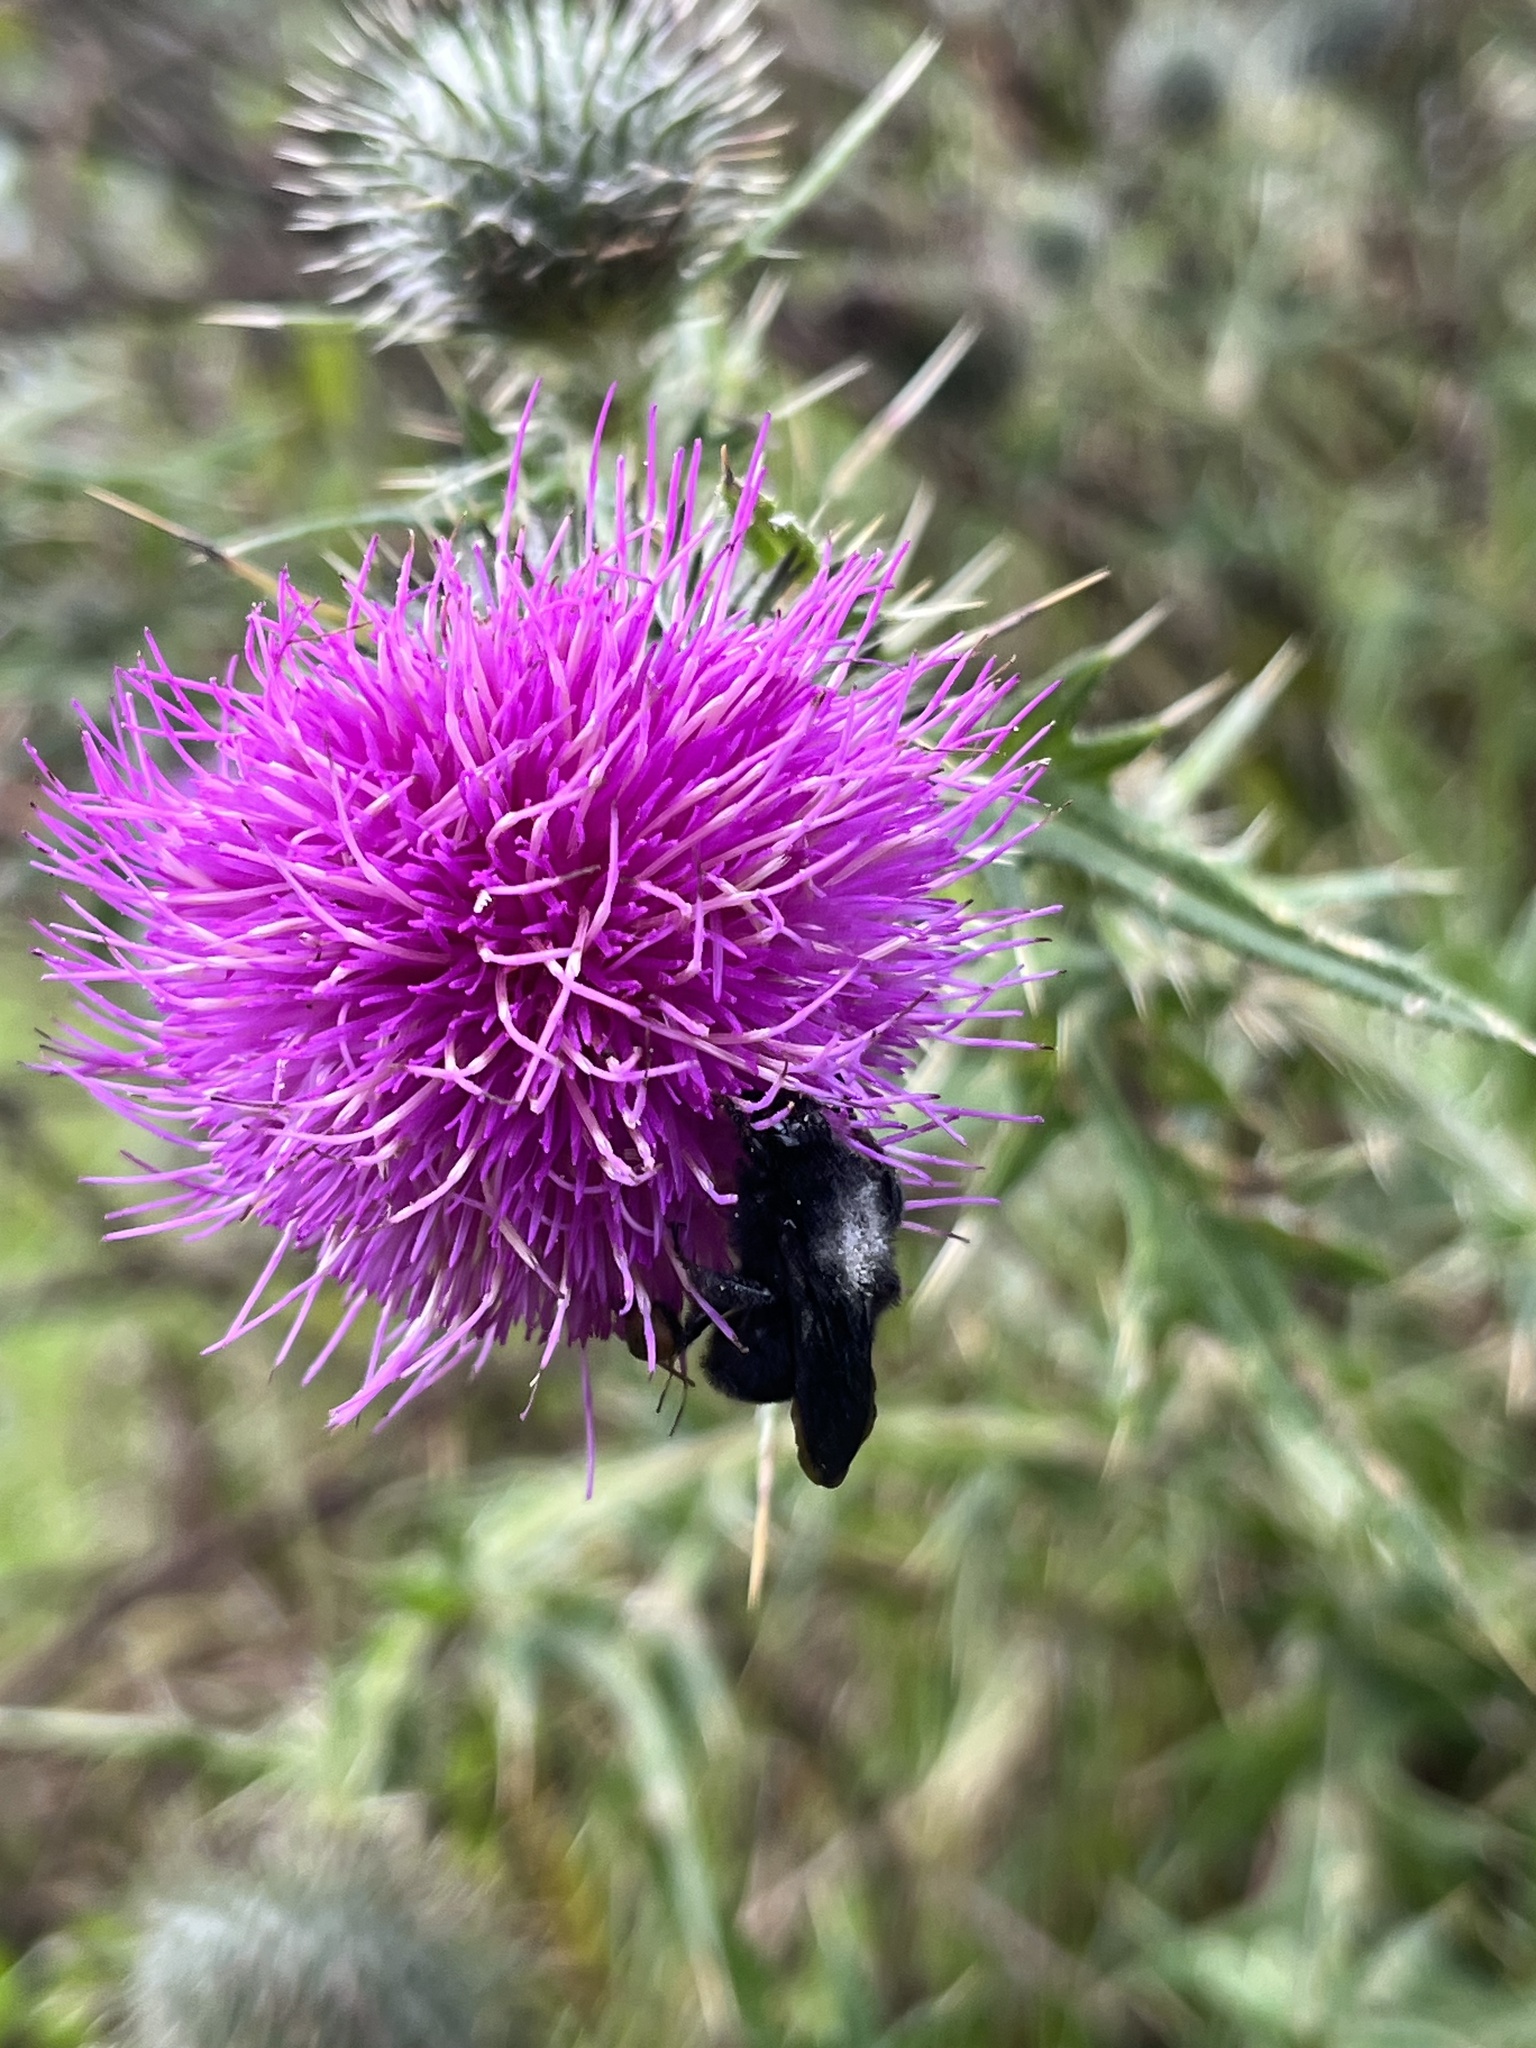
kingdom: Plantae
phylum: Tracheophyta
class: Magnoliopsida
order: Asterales
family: Asteraceae
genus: Cirsium
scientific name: Cirsium vulgare
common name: Bull thistle
